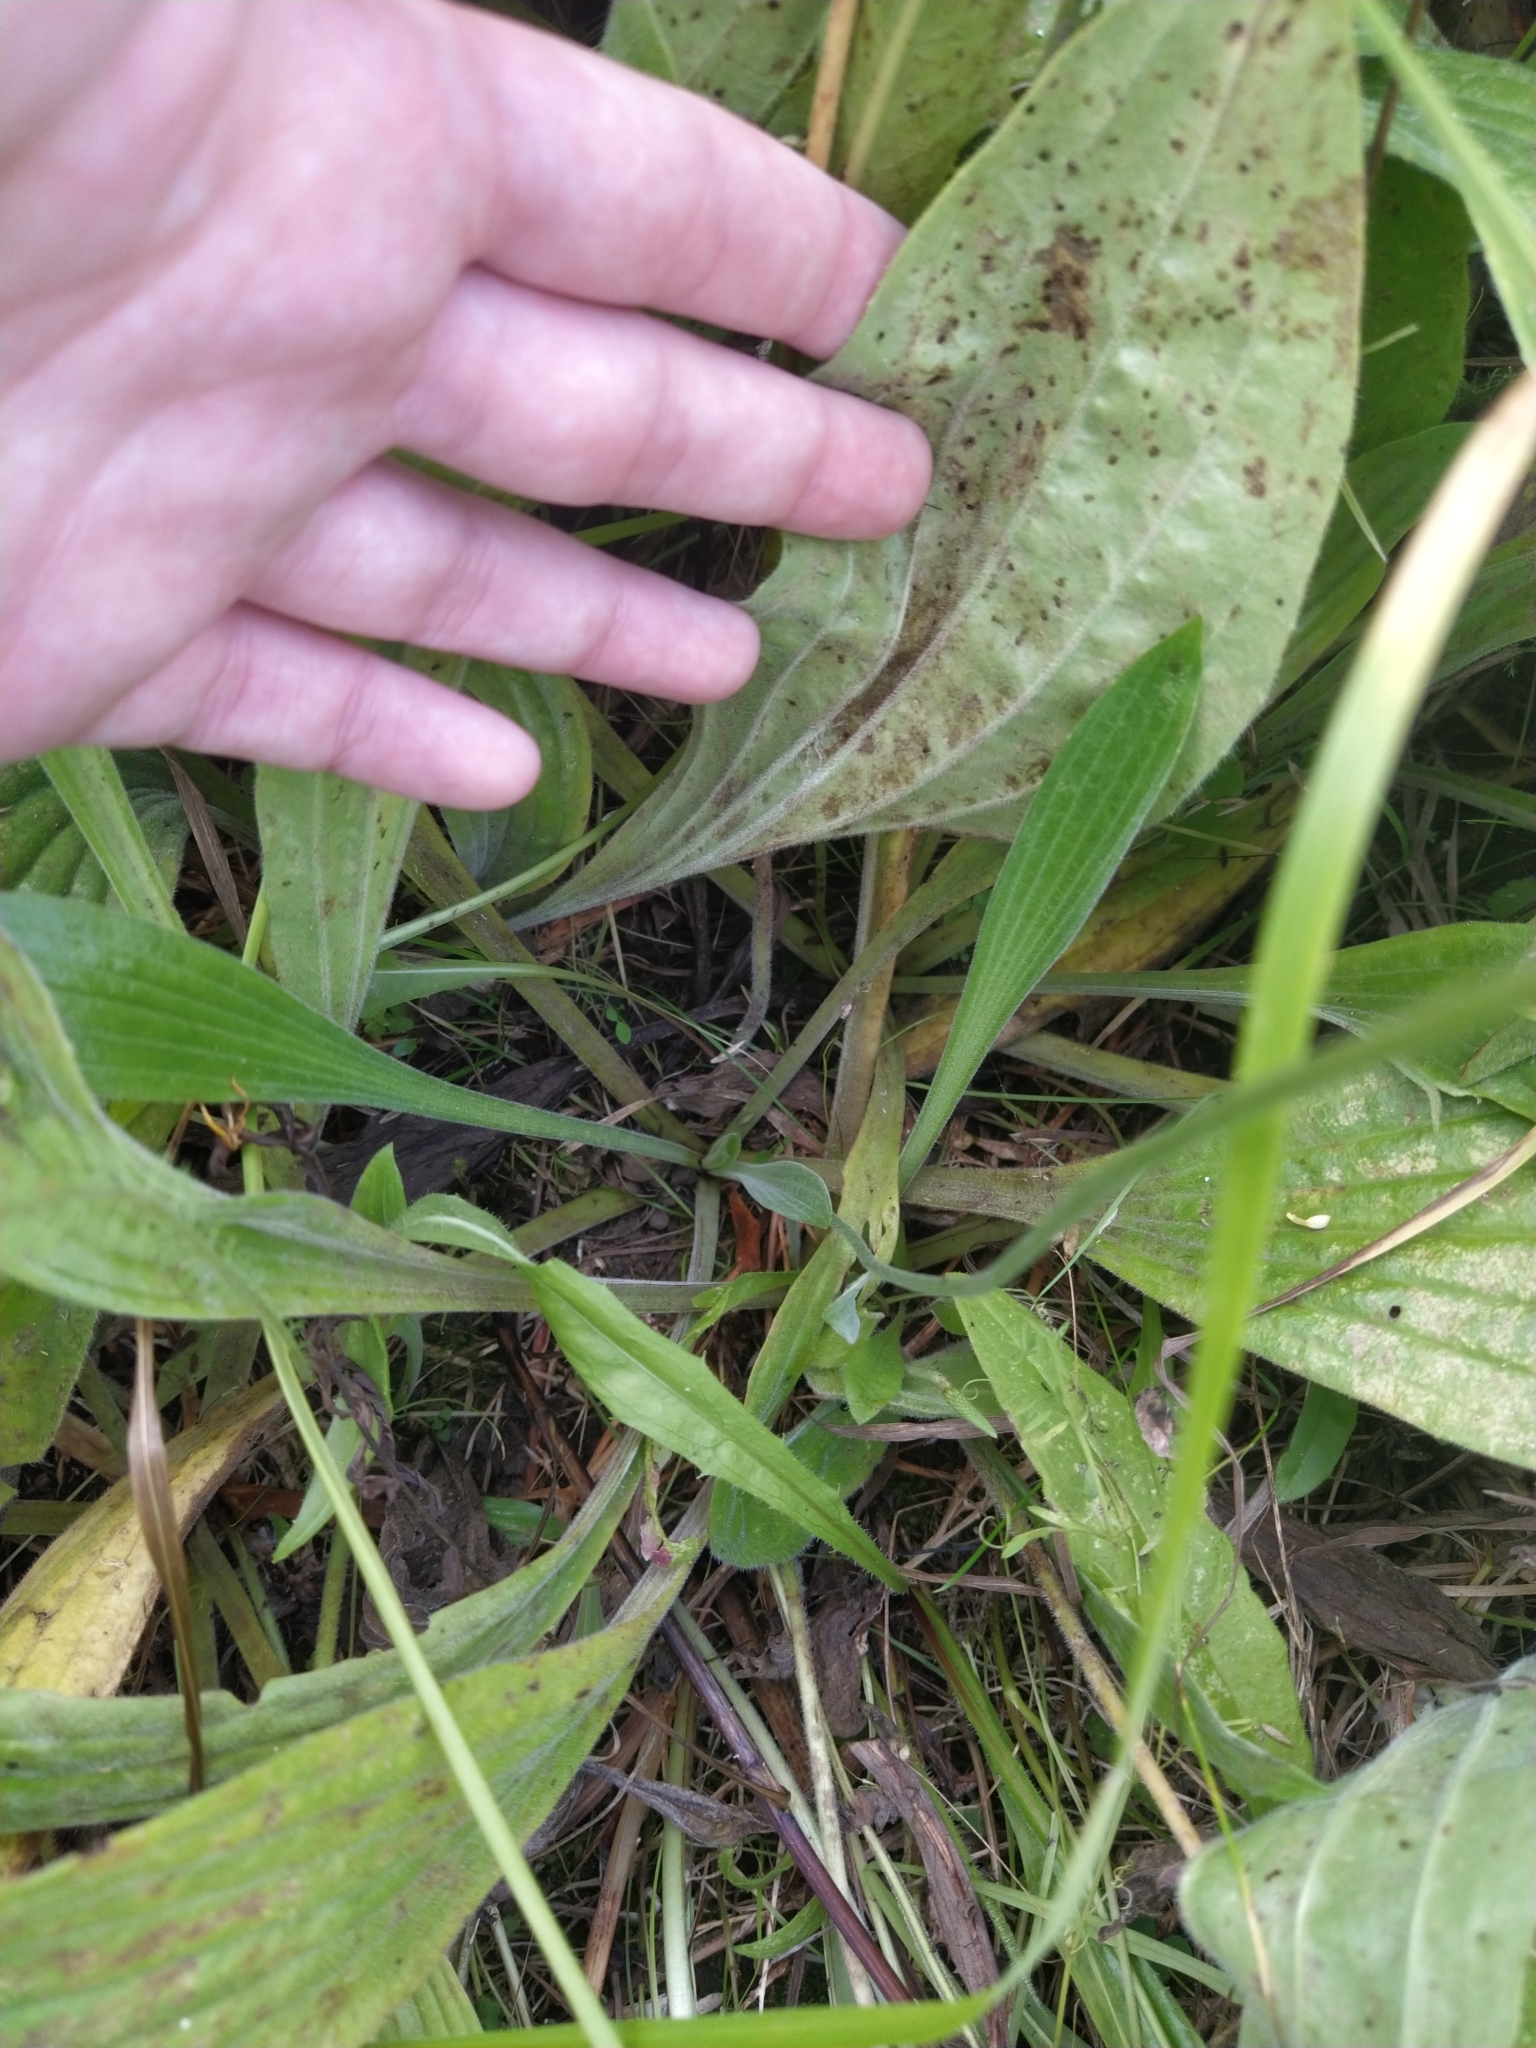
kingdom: Plantae
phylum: Tracheophyta
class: Magnoliopsida
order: Lamiales
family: Plantaginaceae
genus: Plantago
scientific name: Plantago media
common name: Hoary plantain
